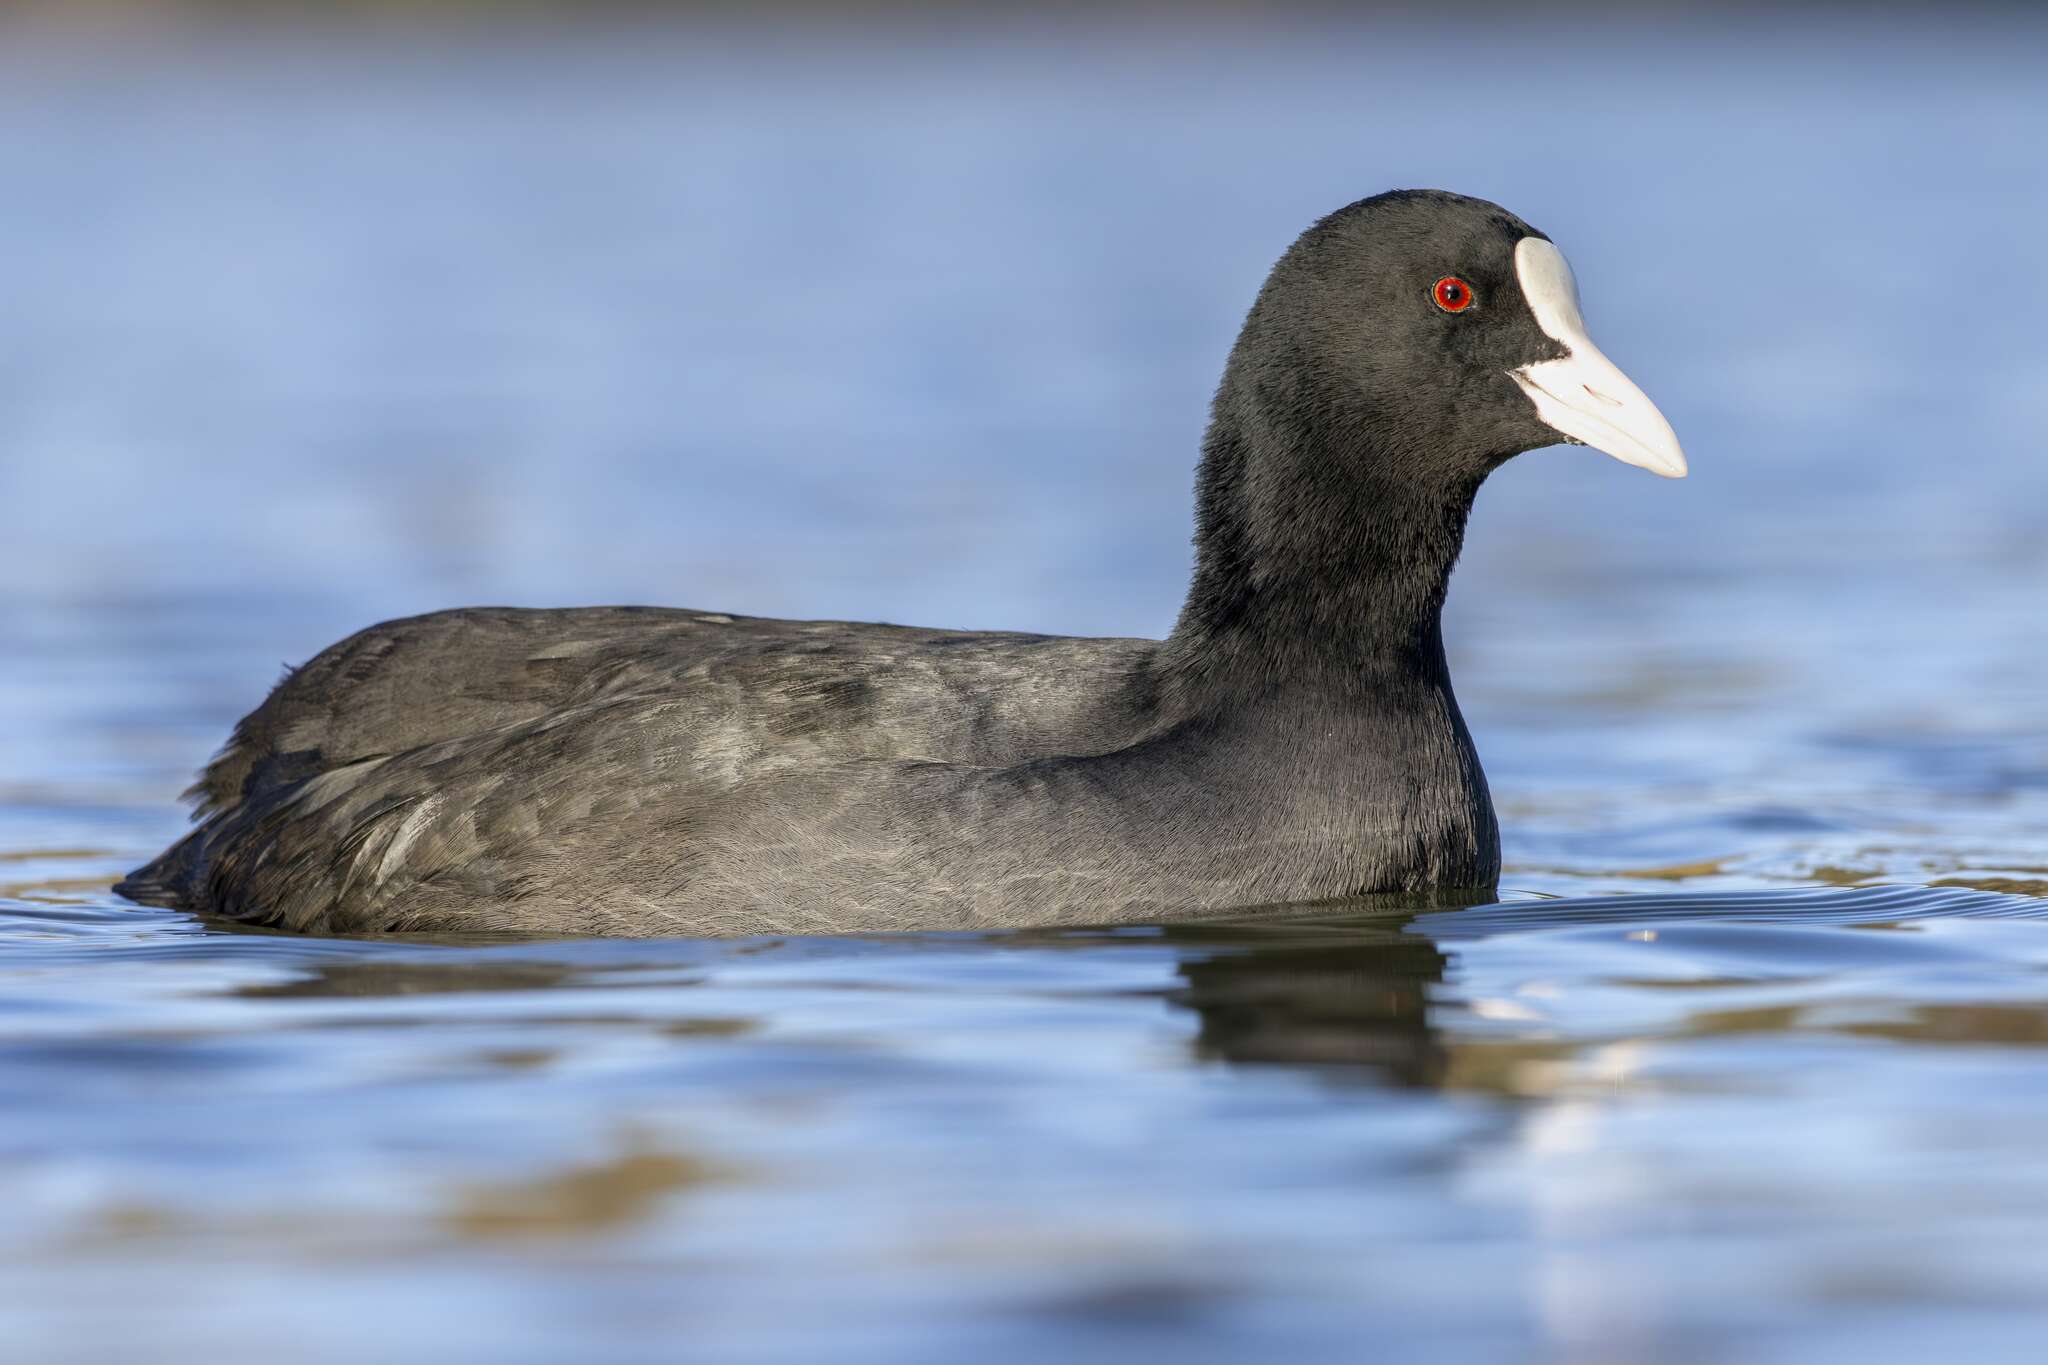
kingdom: Animalia
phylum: Chordata
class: Aves
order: Gruiformes
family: Rallidae
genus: Fulica
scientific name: Fulica atra
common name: Eurasian coot
